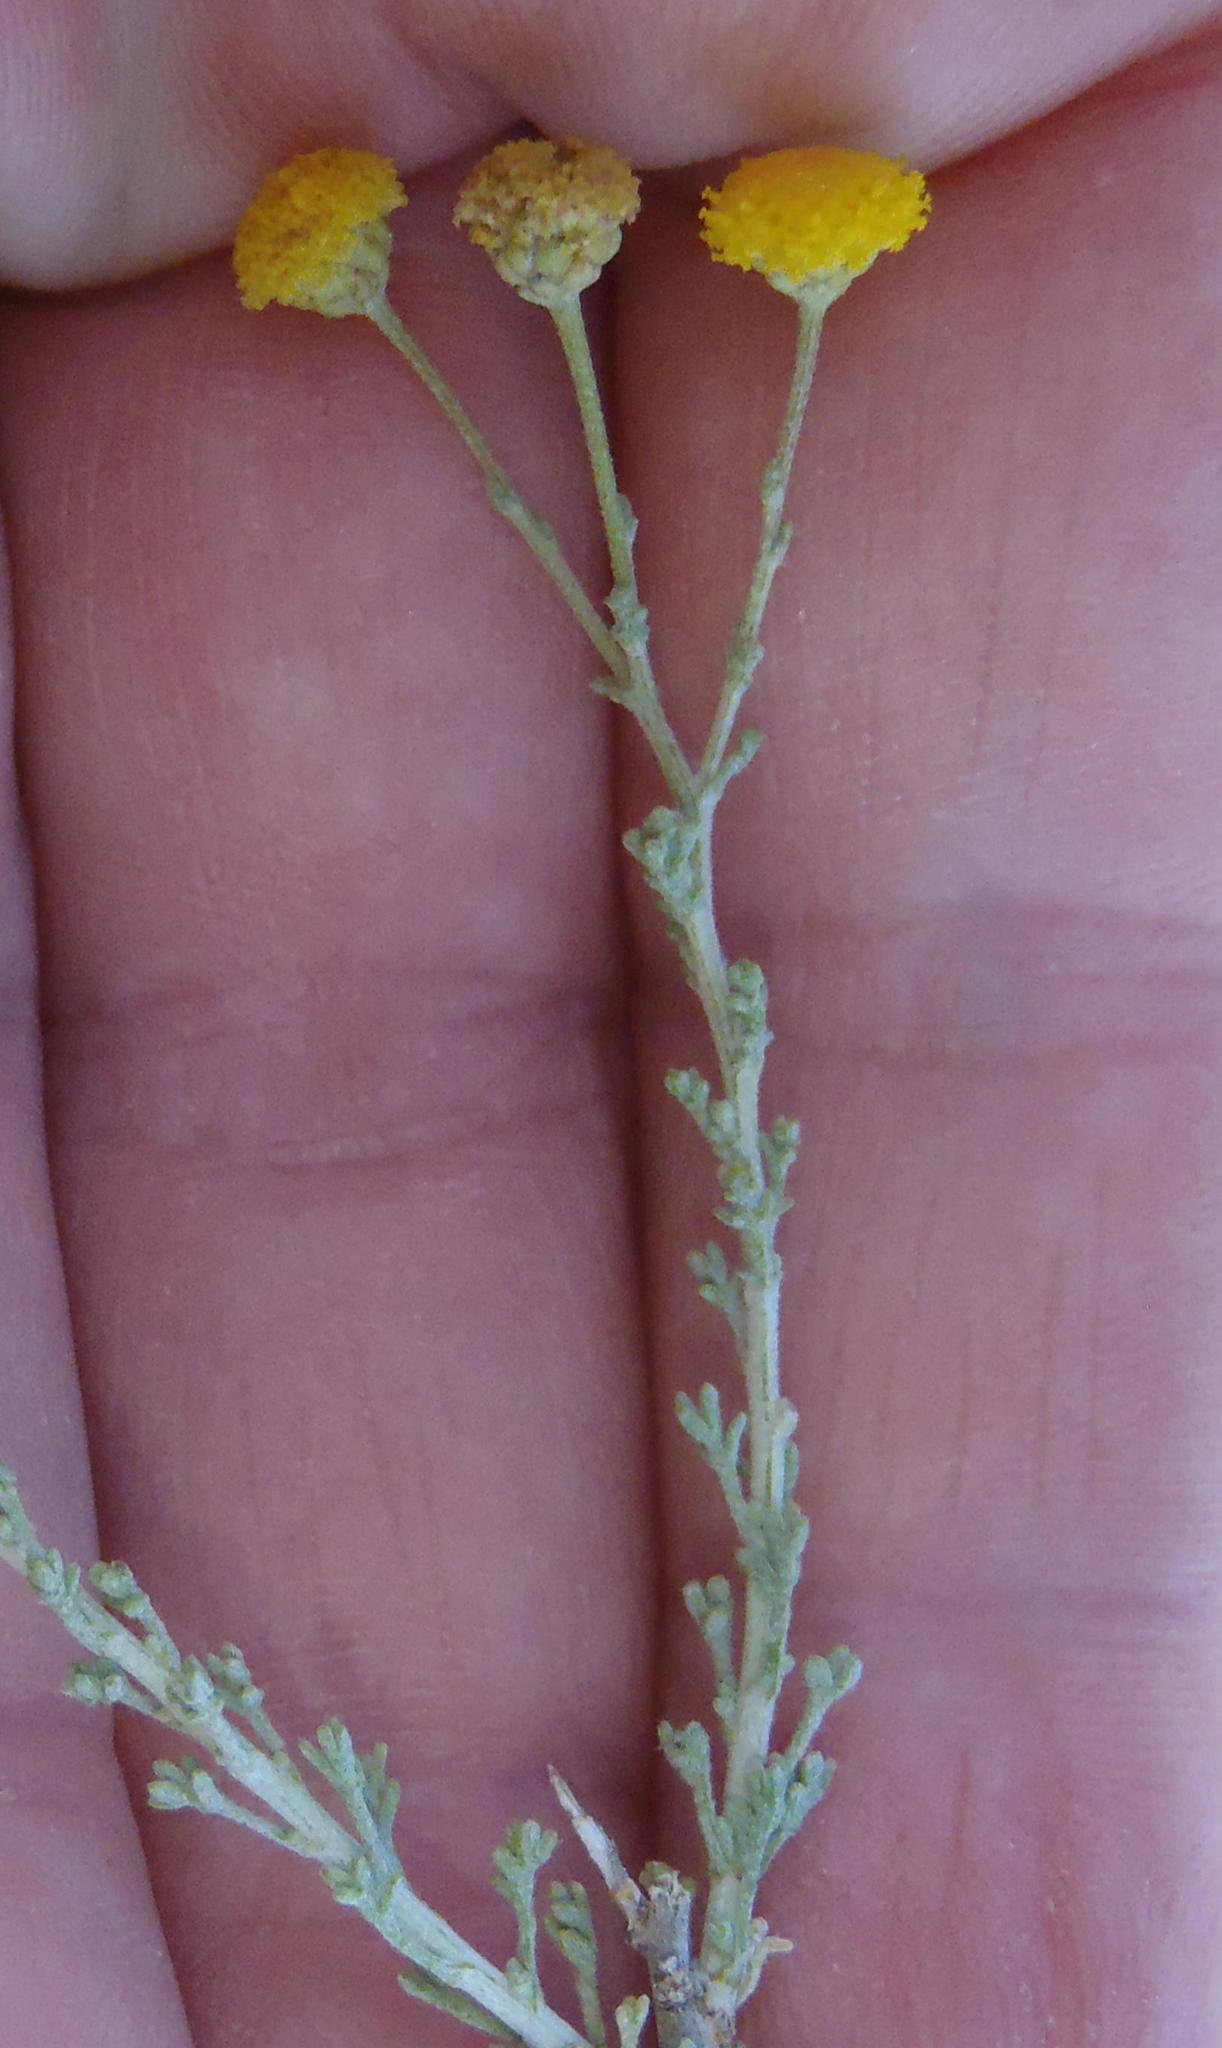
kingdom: Plantae
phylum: Tracheophyta
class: Magnoliopsida
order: Asterales
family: Asteraceae
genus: Pentzia
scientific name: Pentzia incana
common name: African sheepbush
